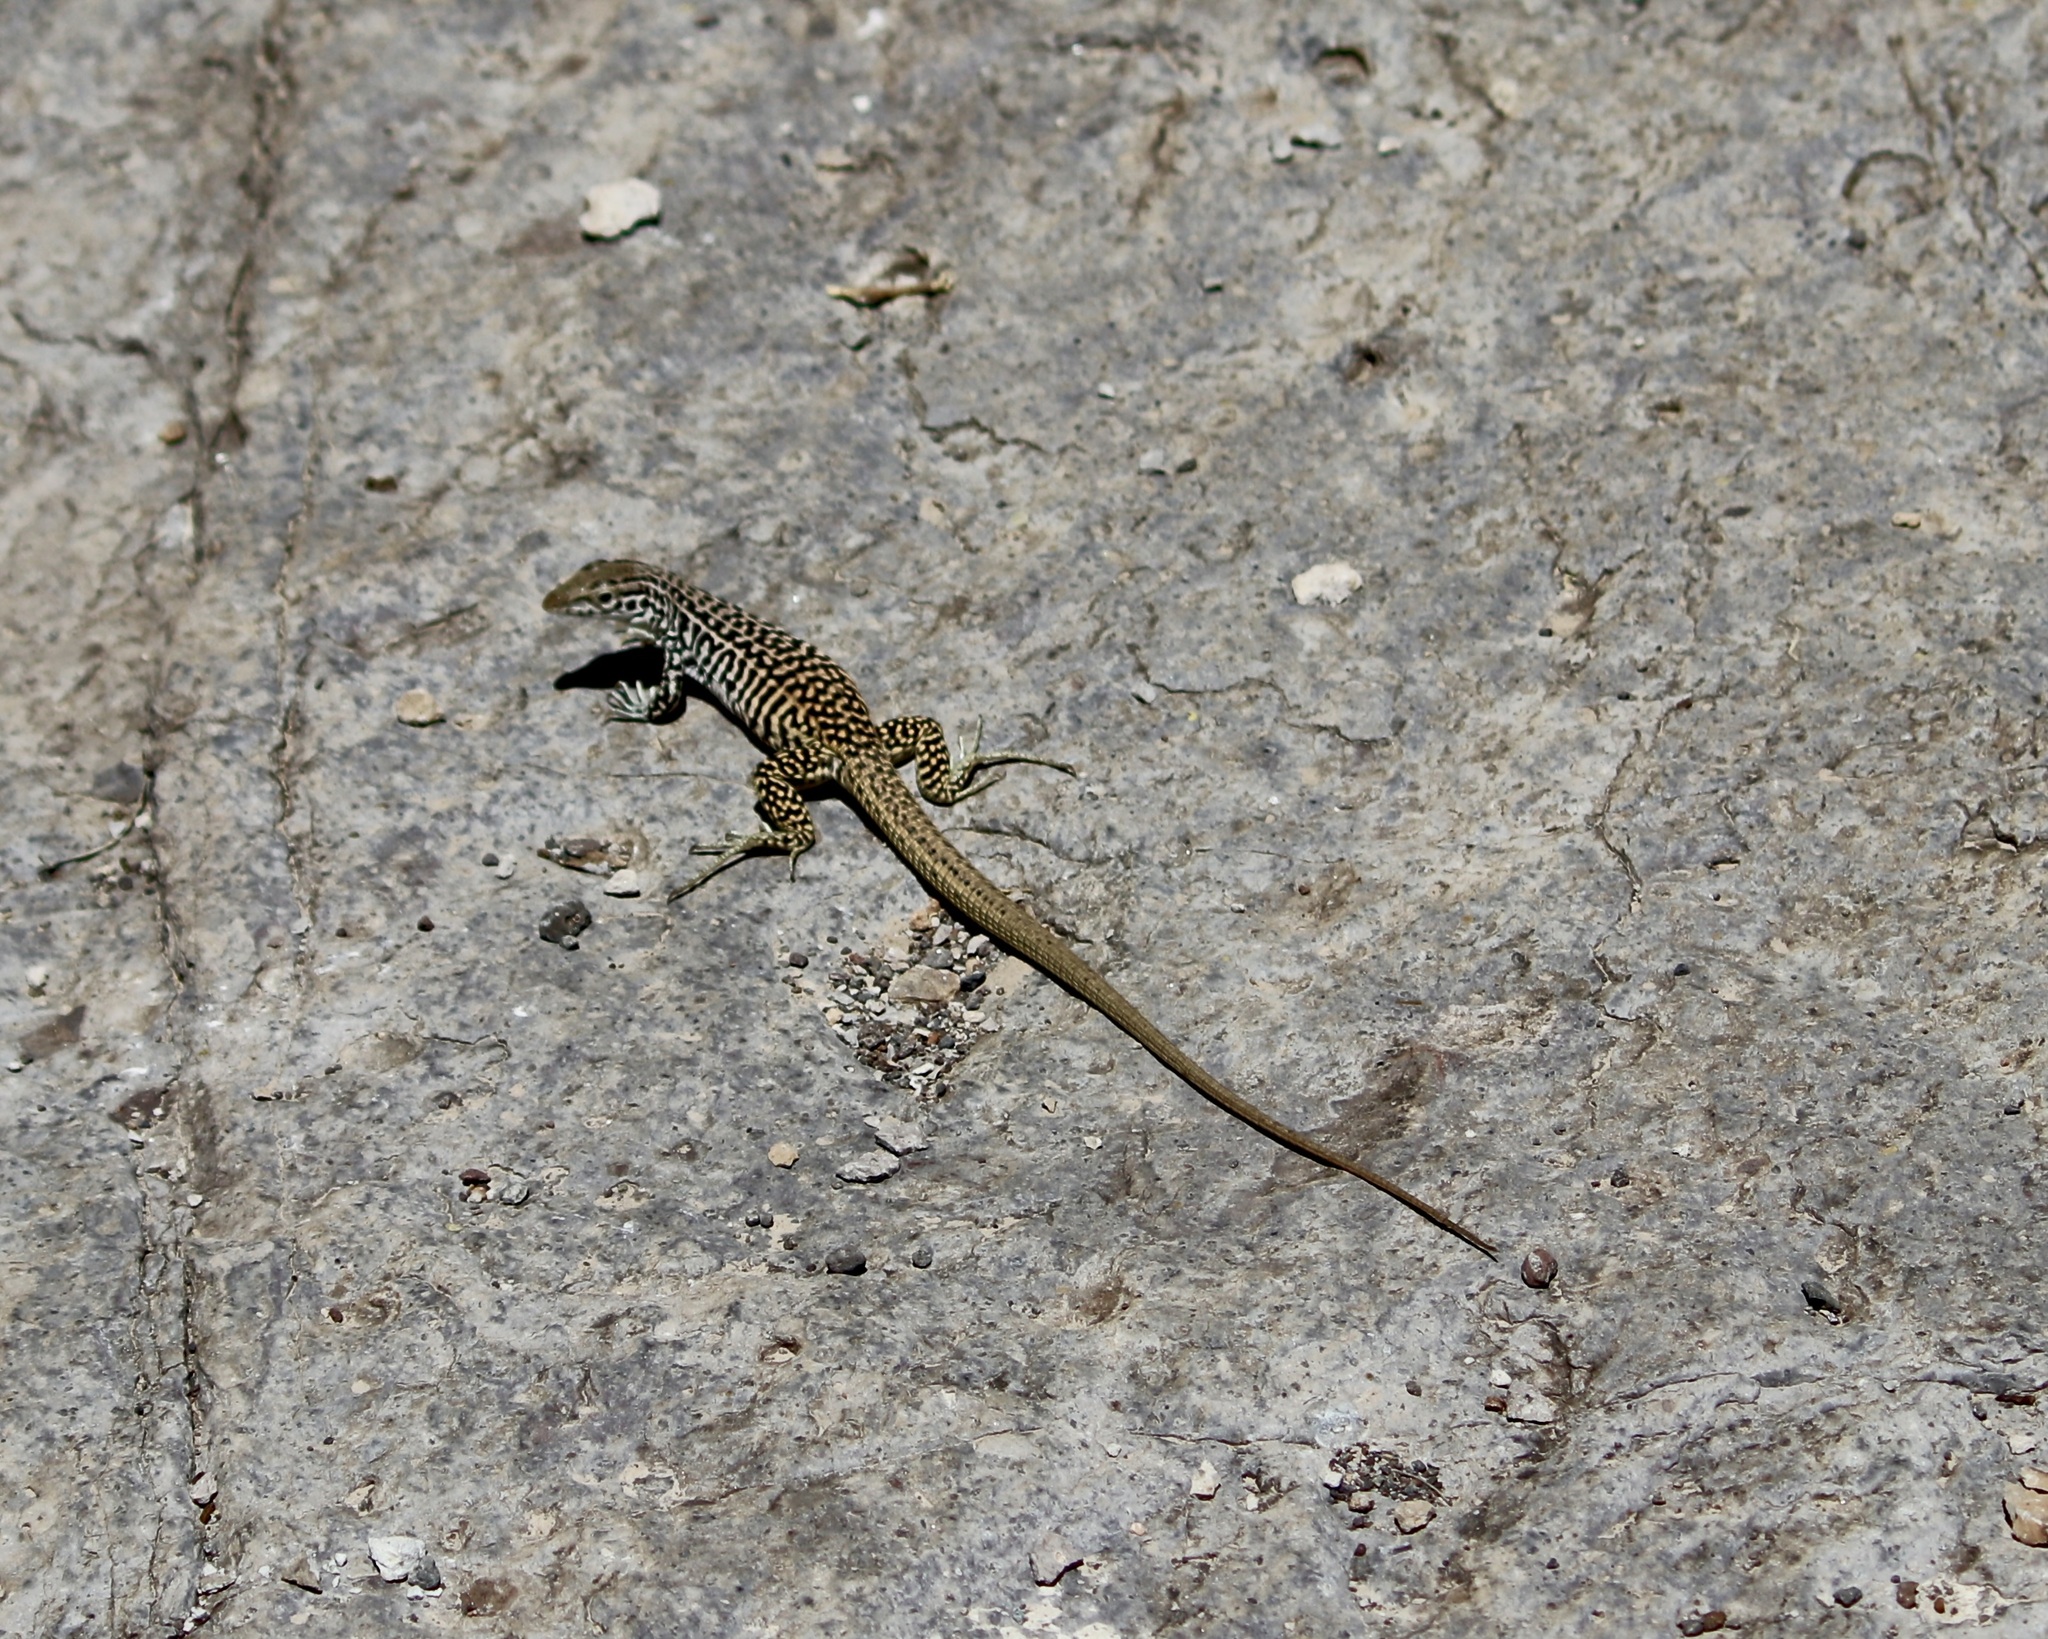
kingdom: Animalia
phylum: Chordata
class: Squamata
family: Teiidae
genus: Aspidoscelis
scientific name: Aspidoscelis tesselatus
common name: Common checkered whiptail [tesselata]
